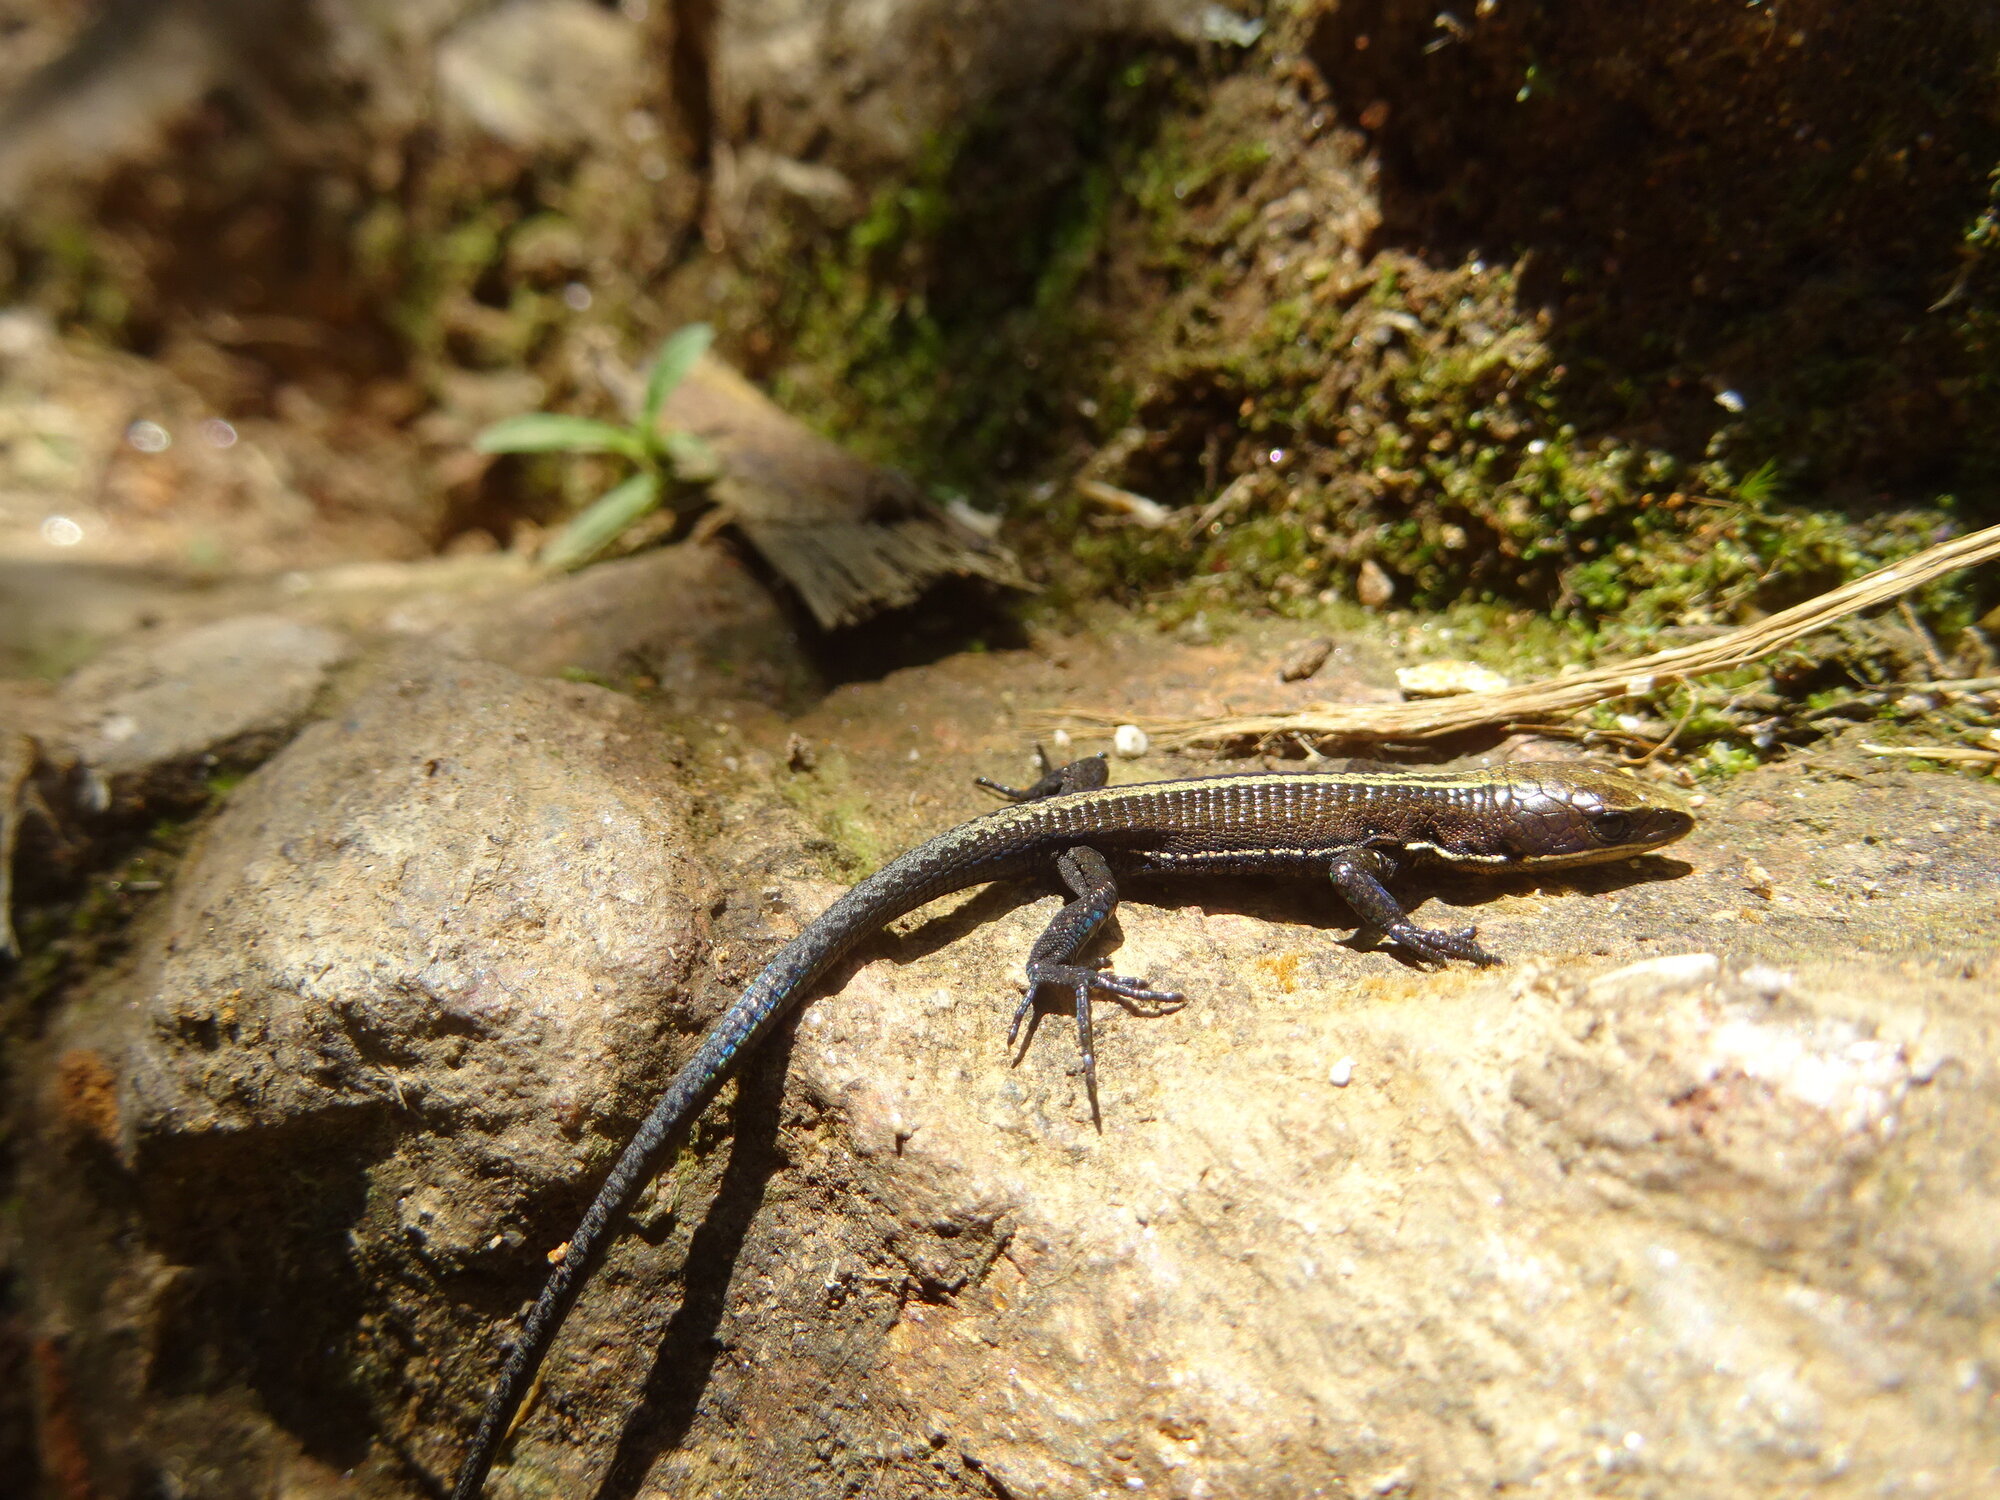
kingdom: Animalia
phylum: Chordata
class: Squamata
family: Gymnophthalmidae
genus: Pholidobolus
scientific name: Pholidobolus vertebralis
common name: Brown prionodactylus
